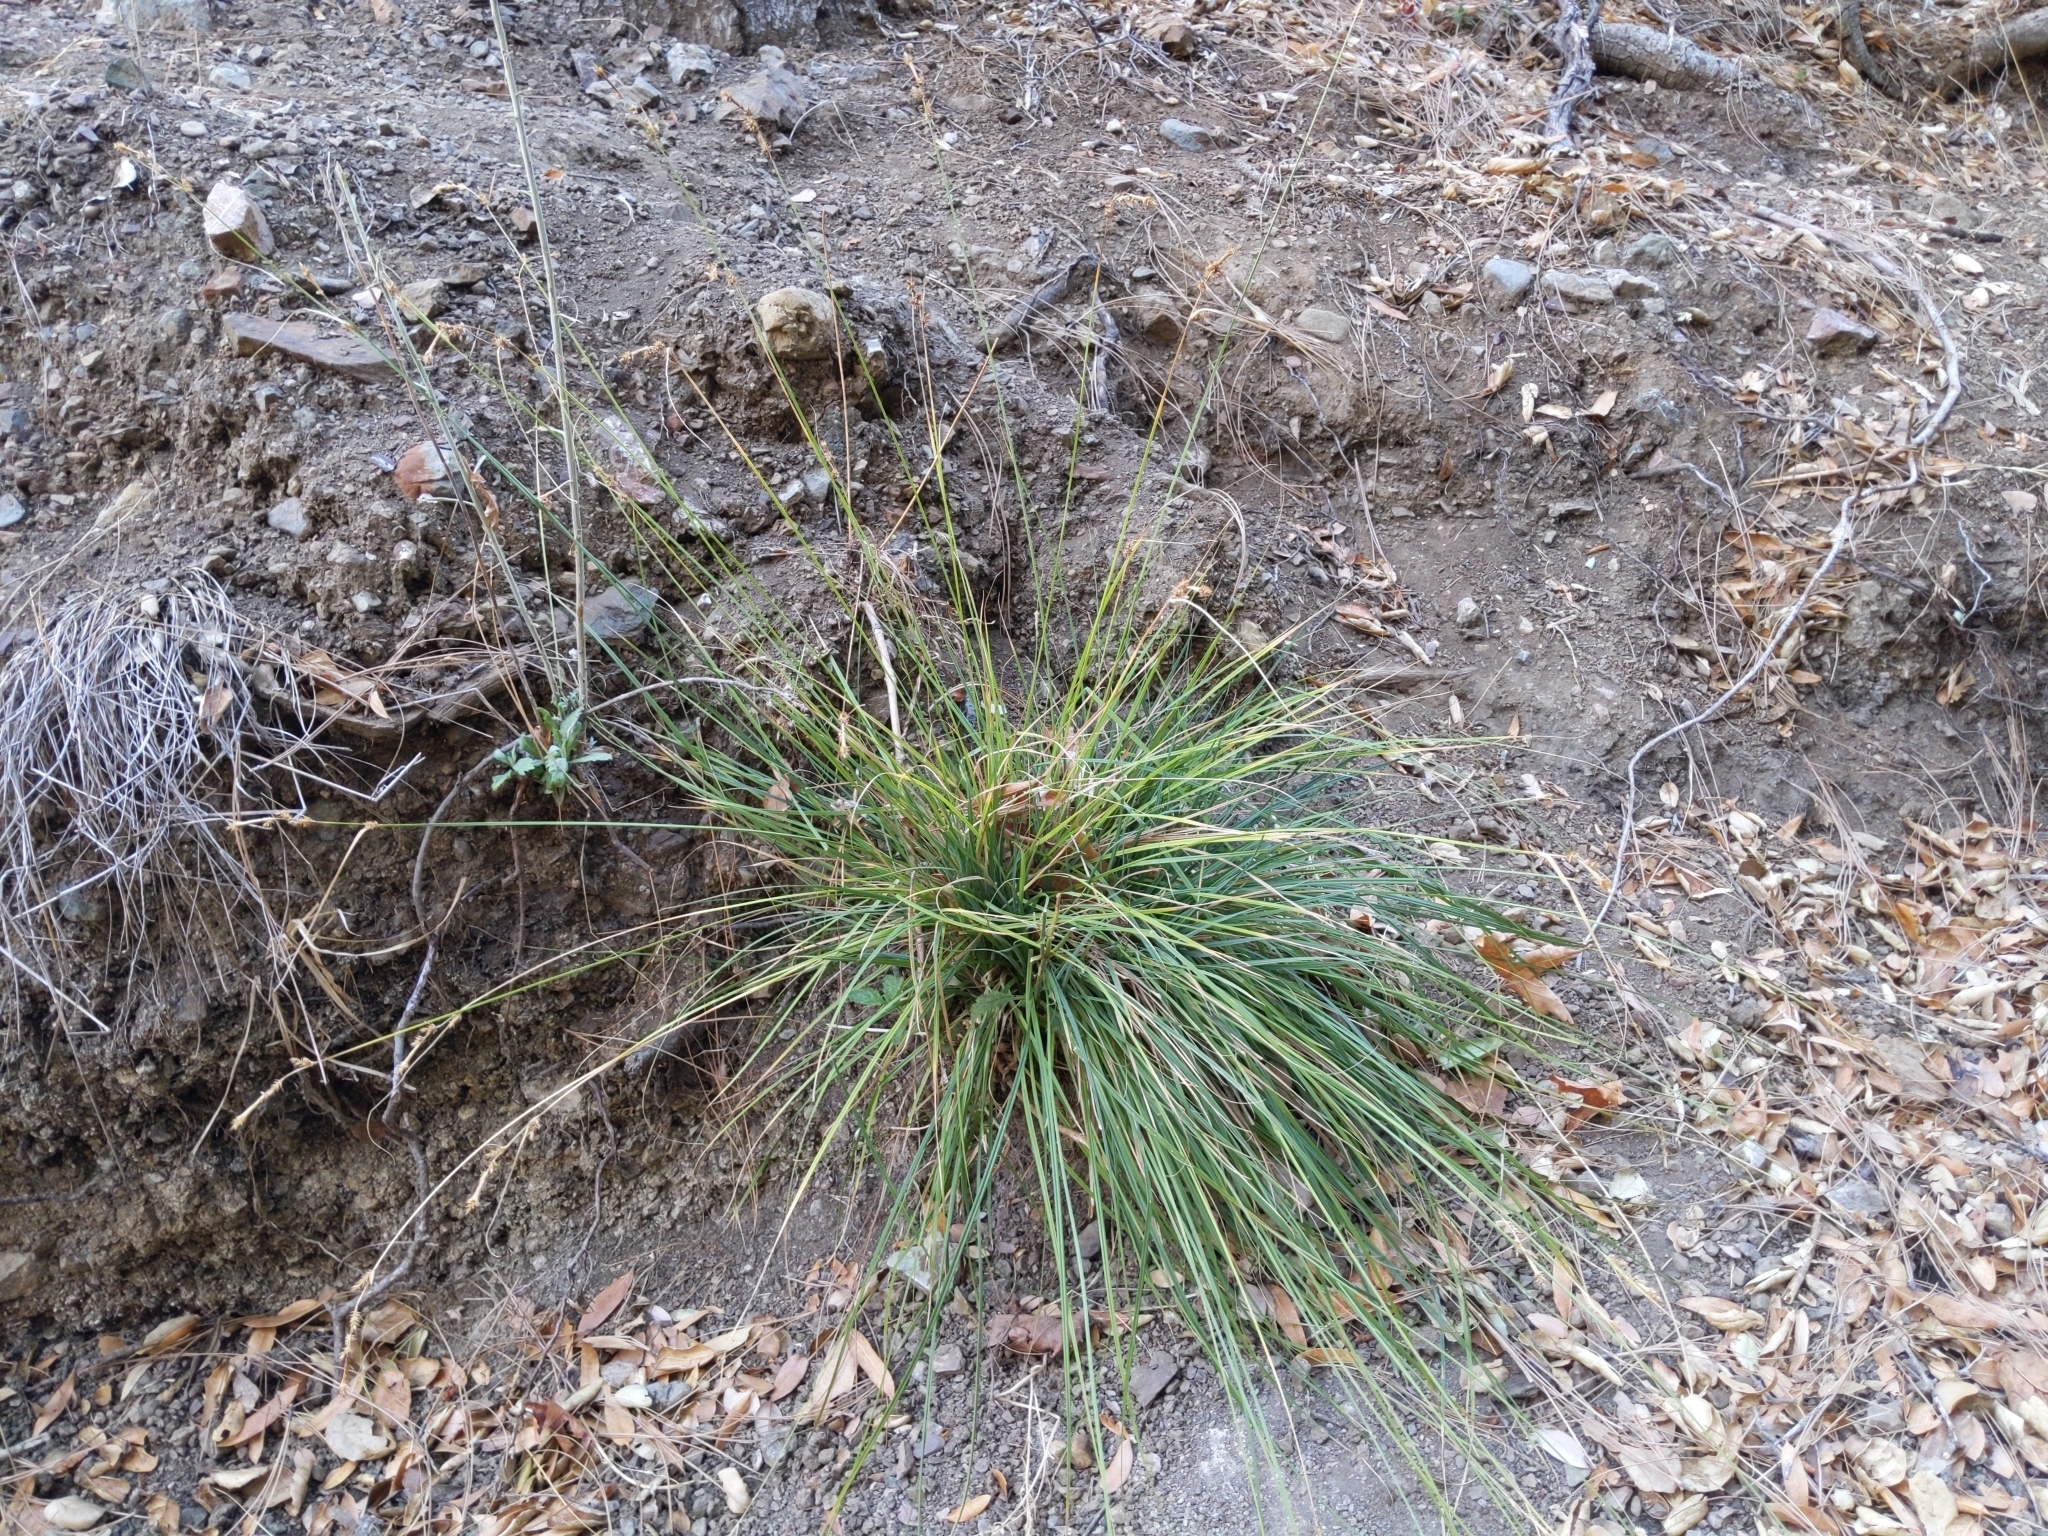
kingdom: Plantae
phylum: Tracheophyta
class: Liliopsida
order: Poales
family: Cyperaceae
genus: Carex
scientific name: Carex serratodens
